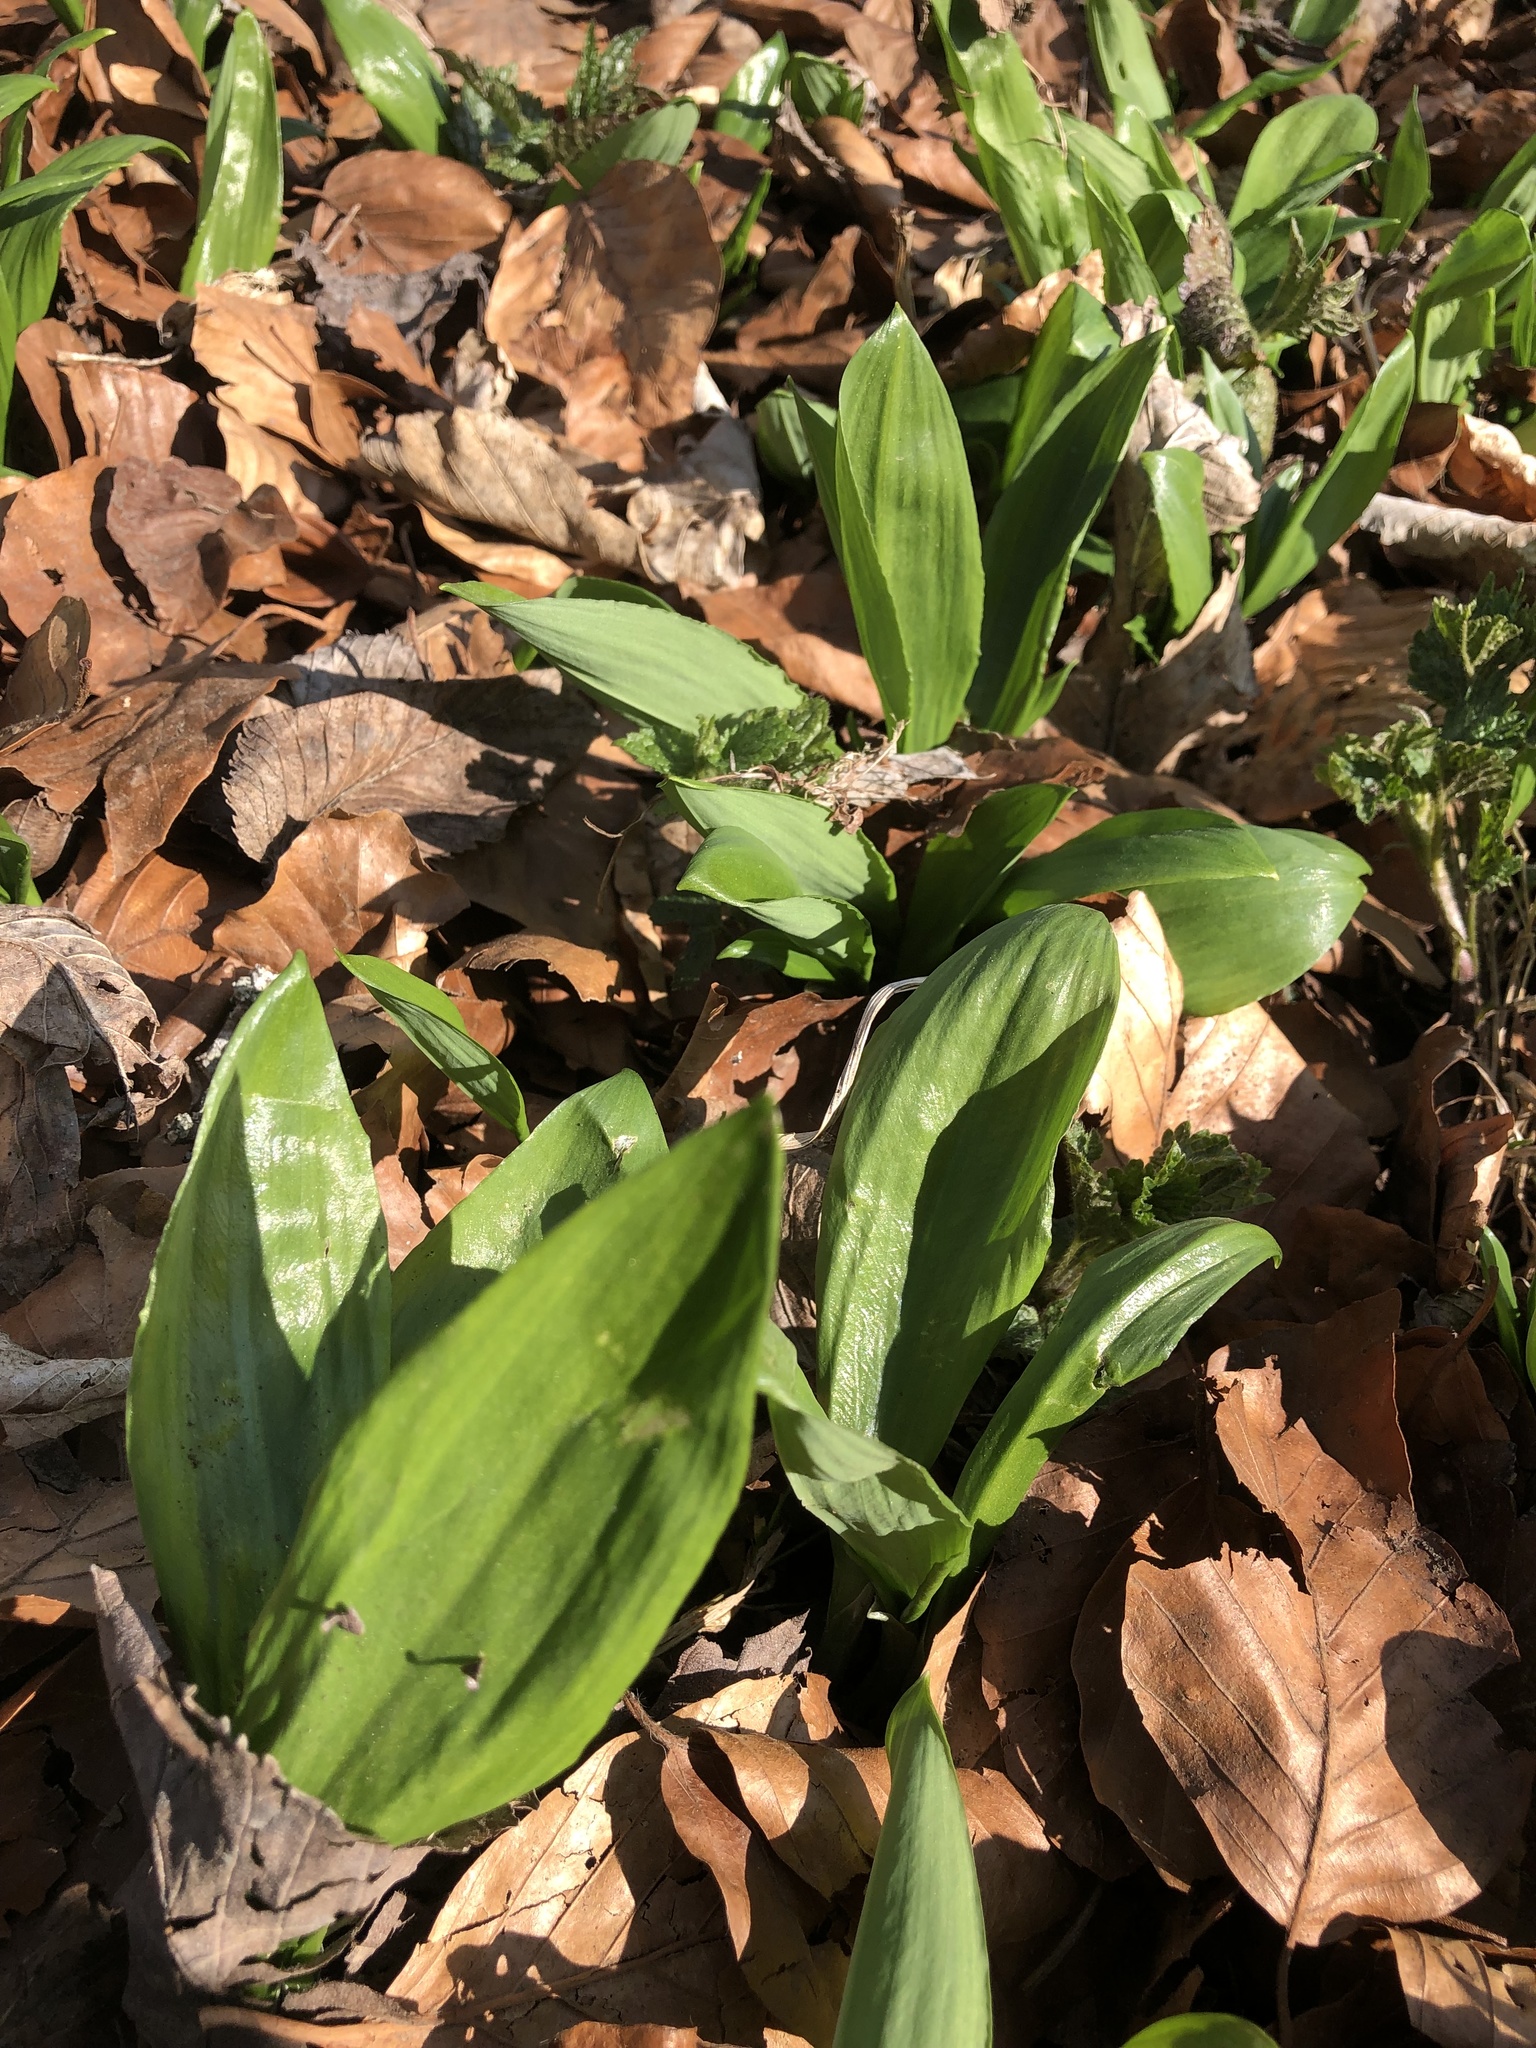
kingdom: Plantae
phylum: Tracheophyta
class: Liliopsida
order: Asparagales
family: Amaryllidaceae
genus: Allium
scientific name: Allium ursinum
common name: Ramsons
